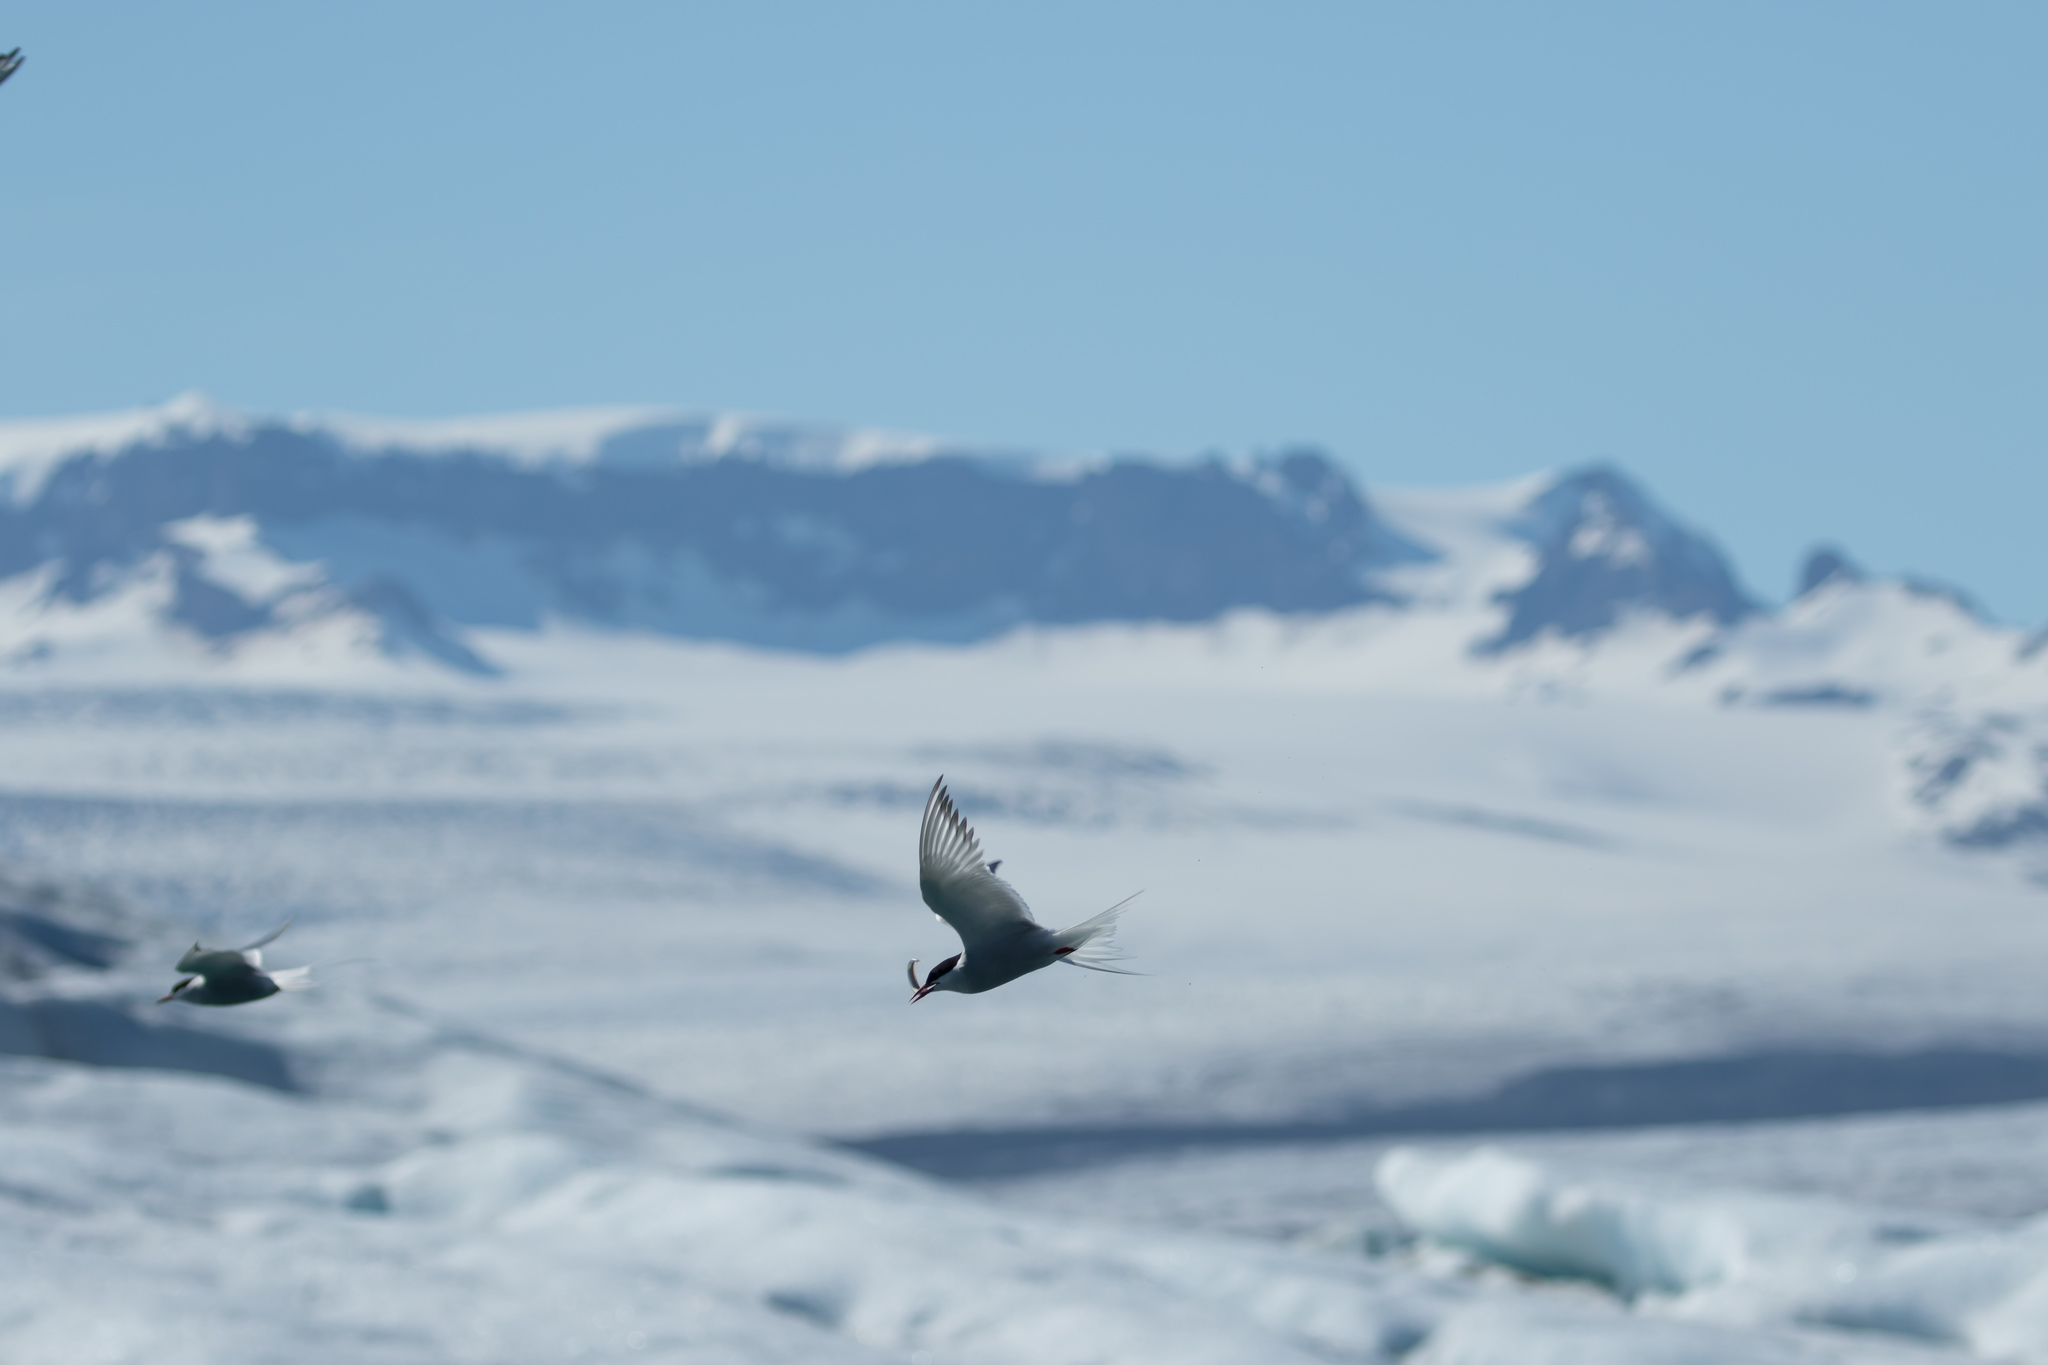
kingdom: Animalia
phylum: Chordata
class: Aves
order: Charadriiformes
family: Laridae
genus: Sterna
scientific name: Sterna paradisaea
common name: Arctic tern
